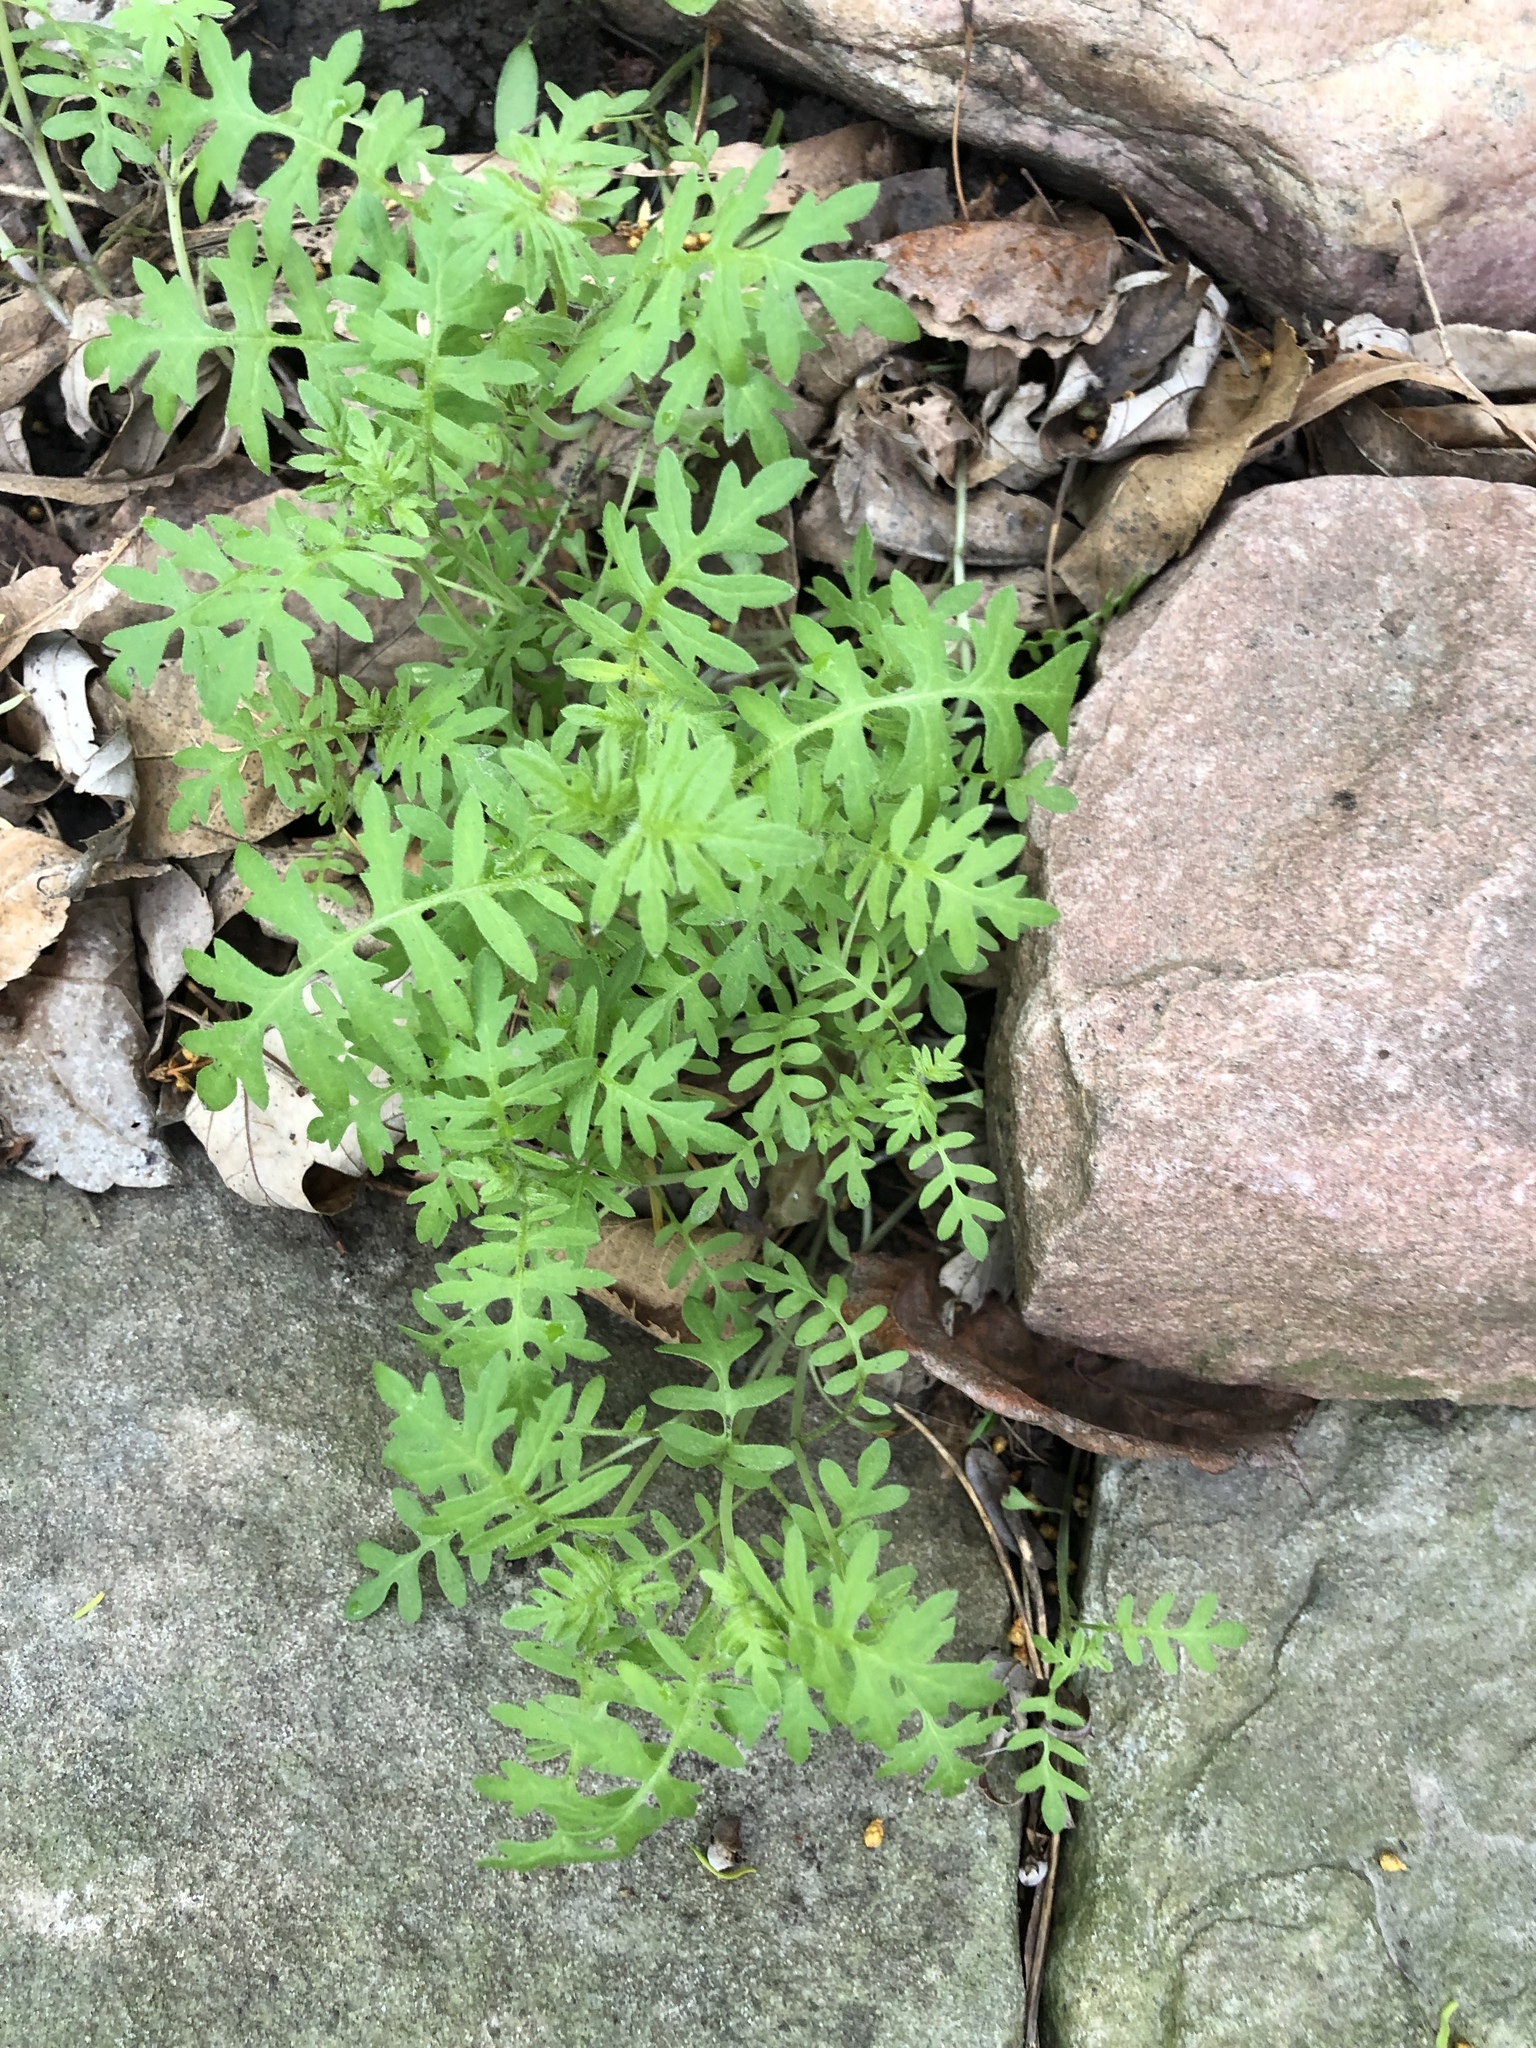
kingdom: Plantae
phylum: Tracheophyta
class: Magnoliopsida
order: Boraginales
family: Hydrophyllaceae
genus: Ellisia
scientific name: Ellisia nyctelea
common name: Aunt lucy
